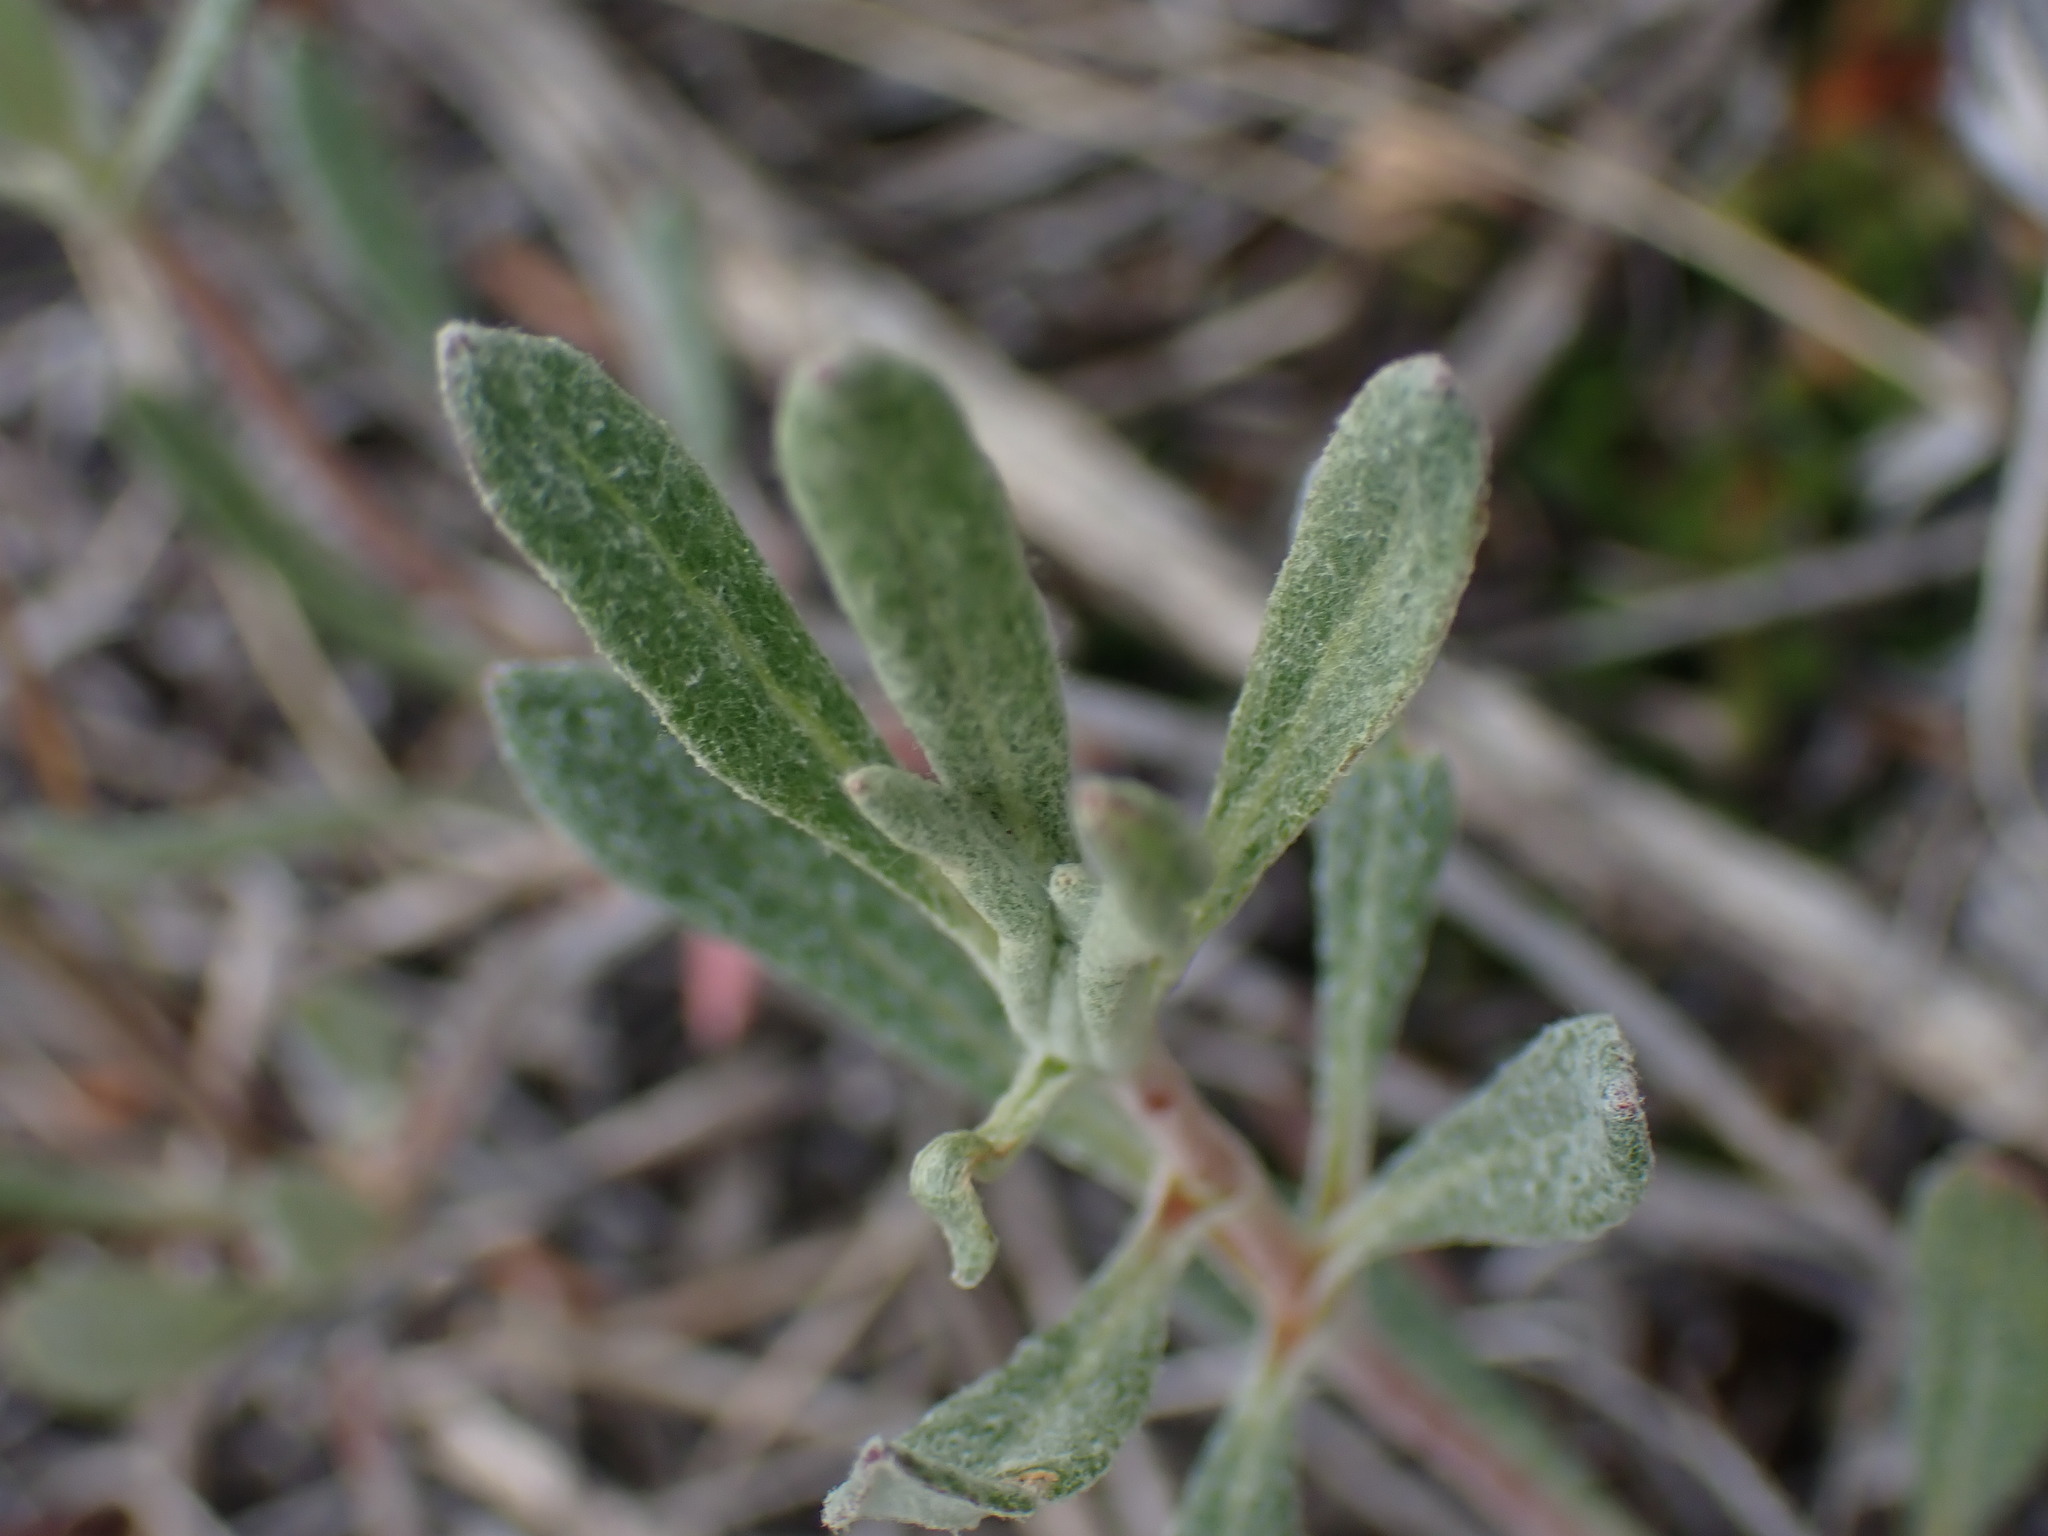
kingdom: Plantae
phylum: Tracheophyta
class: Magnoliopsida
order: Caryophyllales
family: Polygonaceae
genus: Eriogonum
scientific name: Eriogonum heracleoides
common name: Wyeth's buckwheat
